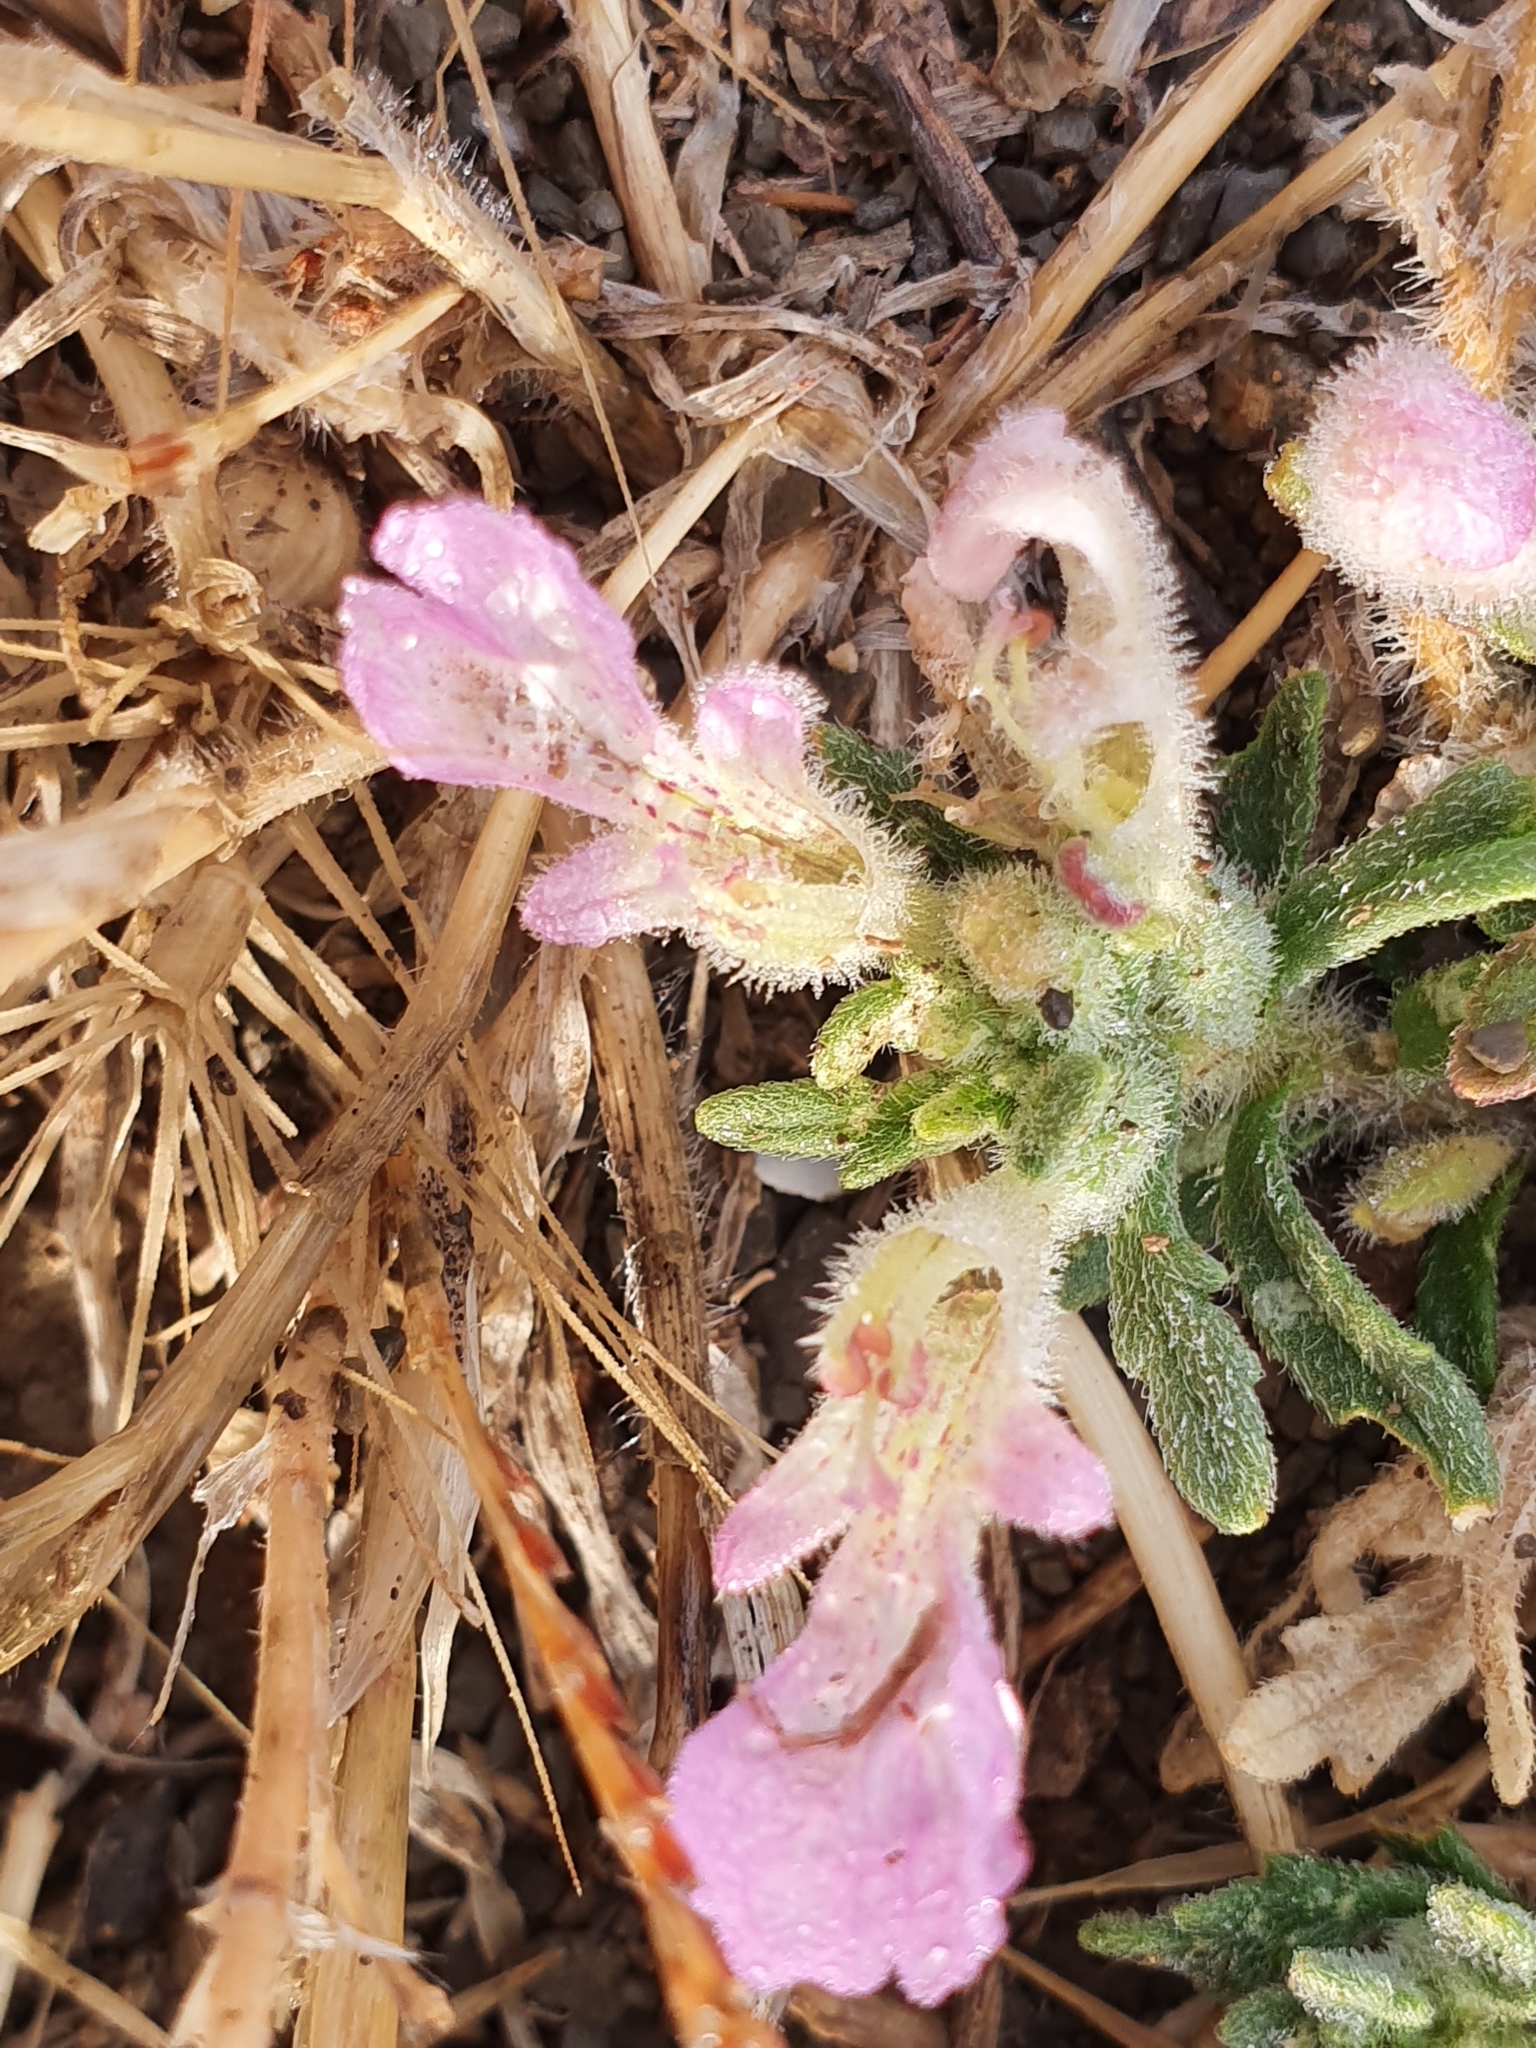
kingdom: Plantae
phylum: Tracheophyta
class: Magnoliopsida
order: Lamiales
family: Lamiaceae
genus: Ajuga
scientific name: Ajuga iva
